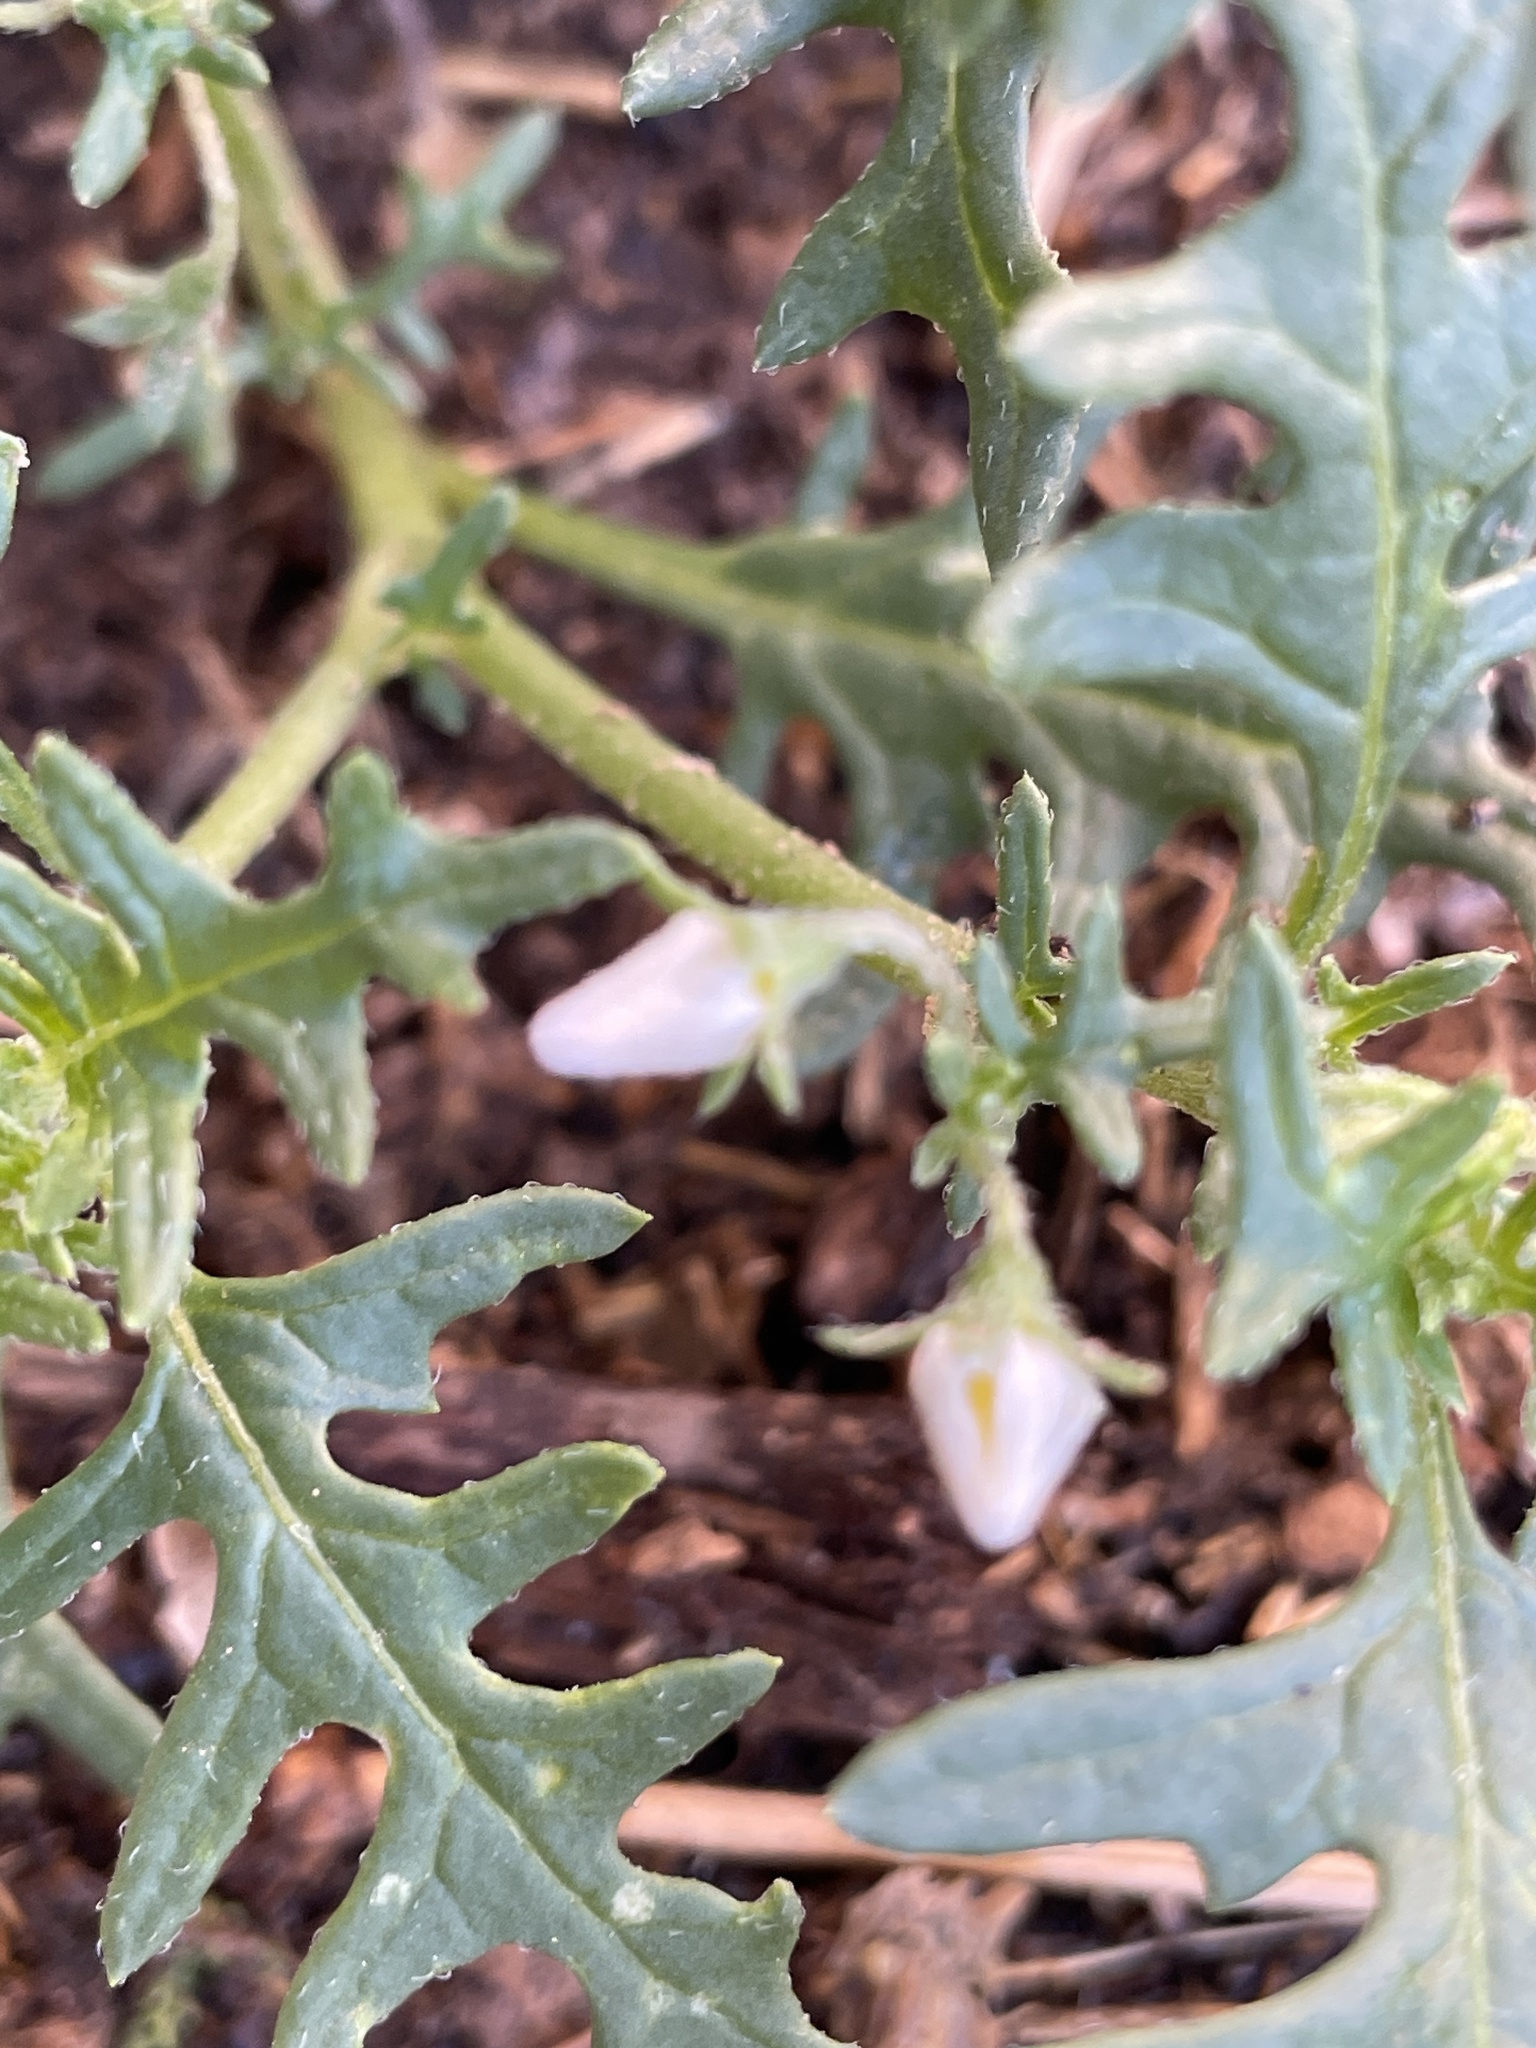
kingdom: Plantae
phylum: Tracheophyta
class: Magnoliopsida
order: Solanales
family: Solanaceae
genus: Solanum
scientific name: Solanum triflorum
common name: Small nightshade
